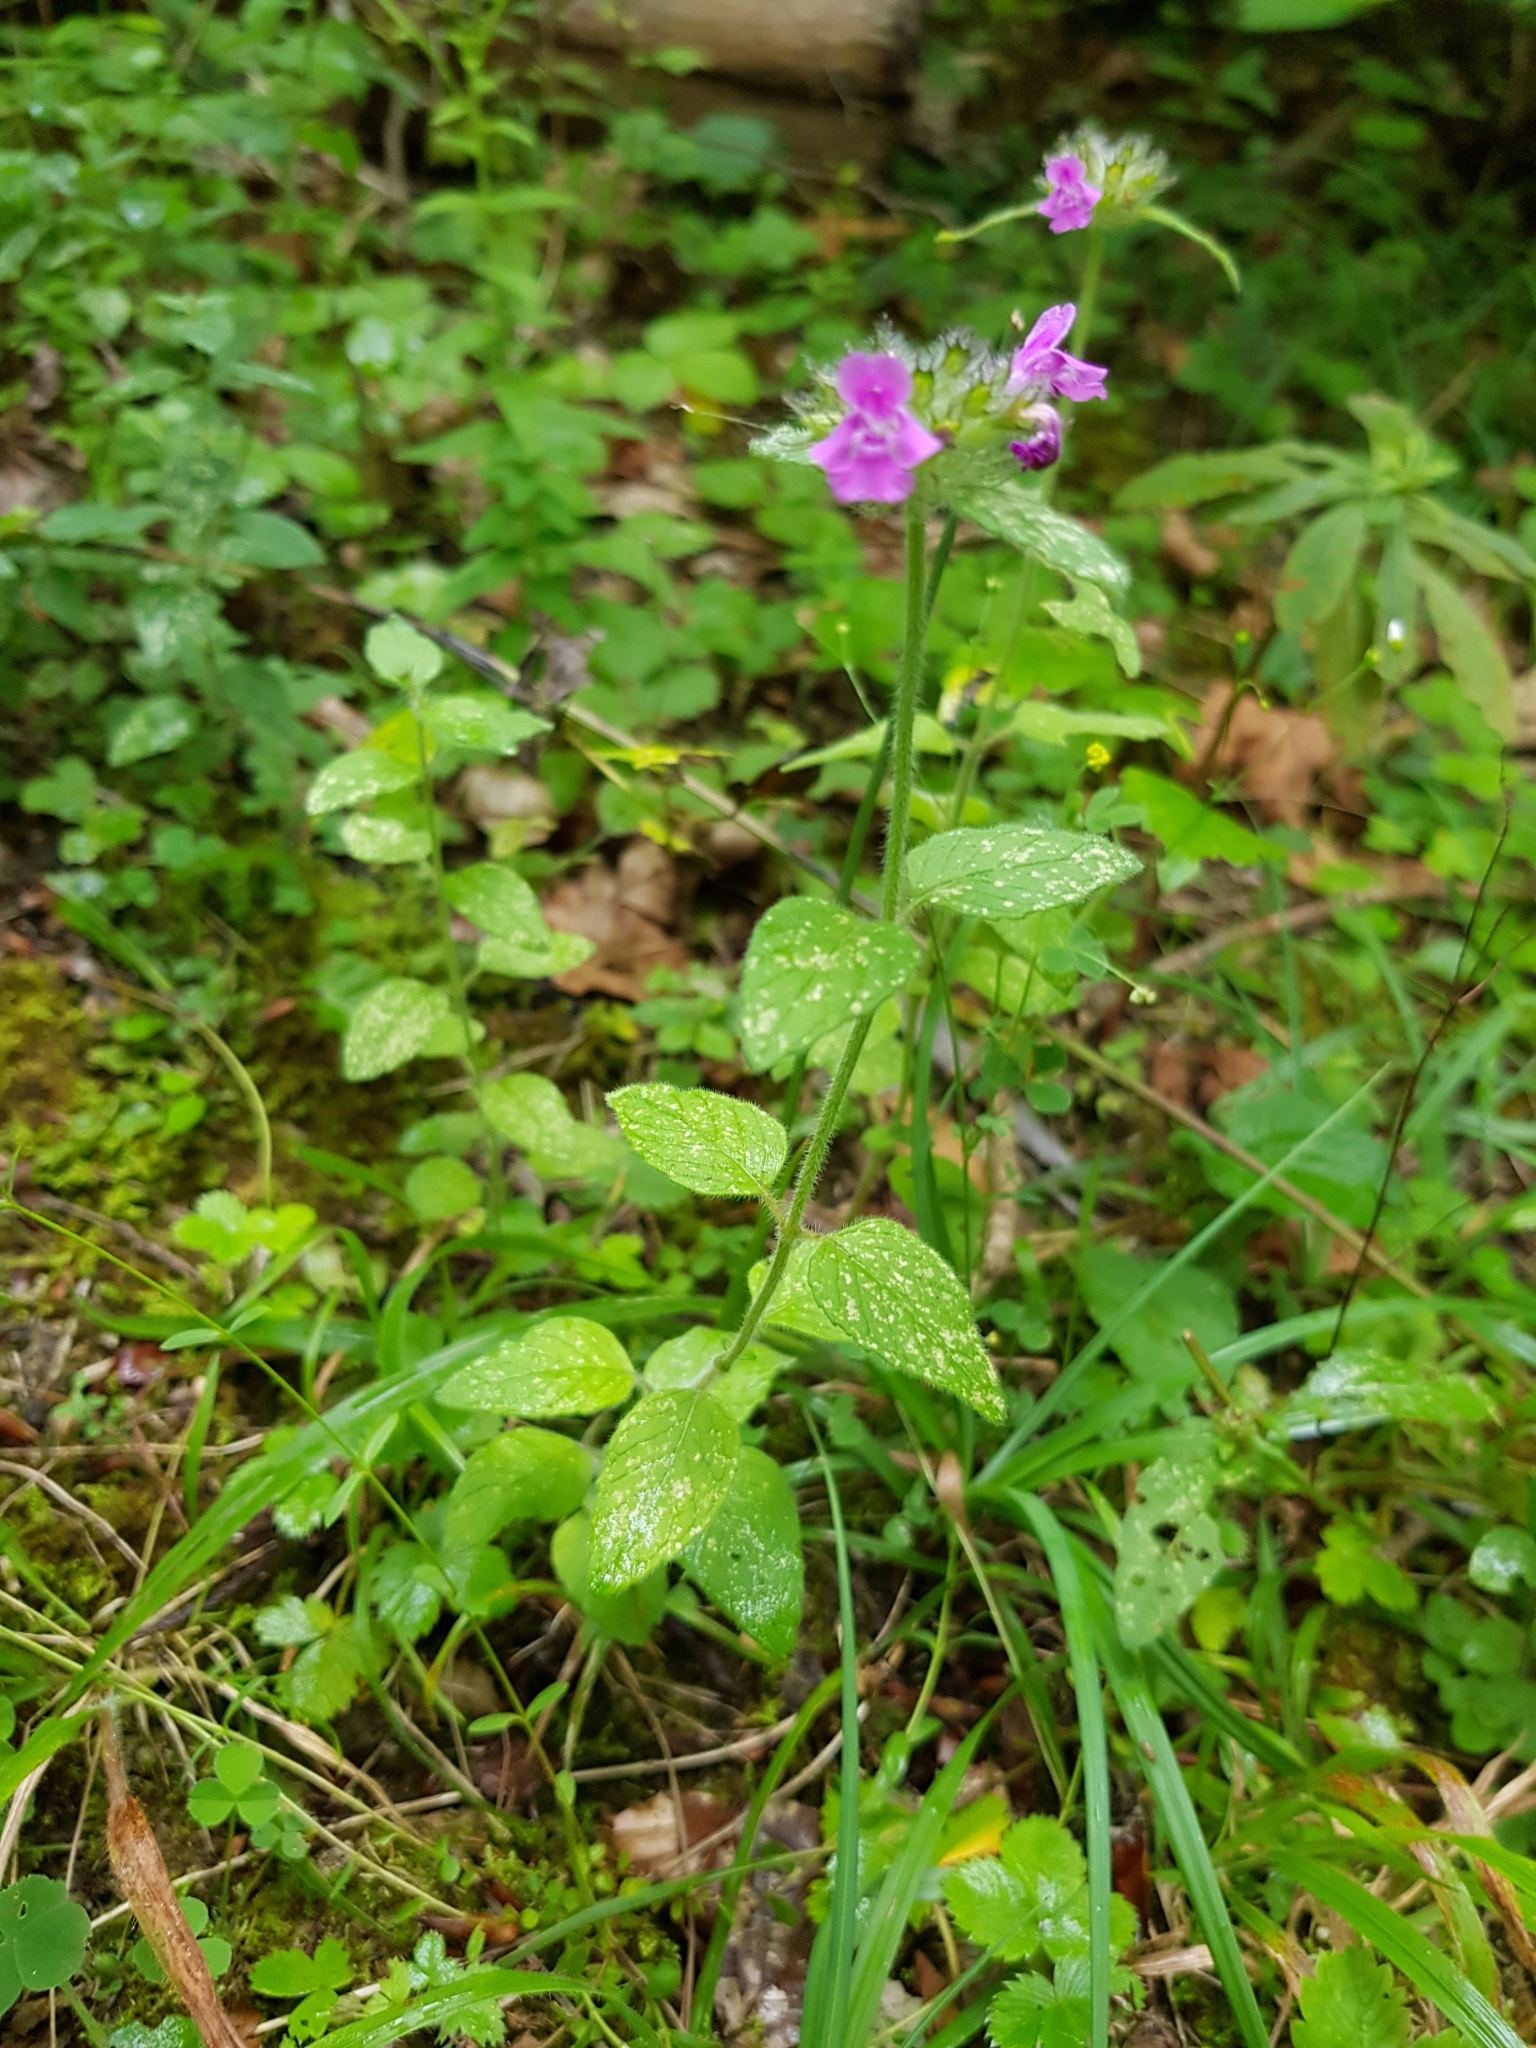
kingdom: Plantae
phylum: Tracheophyta
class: Magnoliopsida
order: Lamiales
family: Lamiaceae
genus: Clinopodium
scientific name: Clinopodium vulgare
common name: Wild basil
